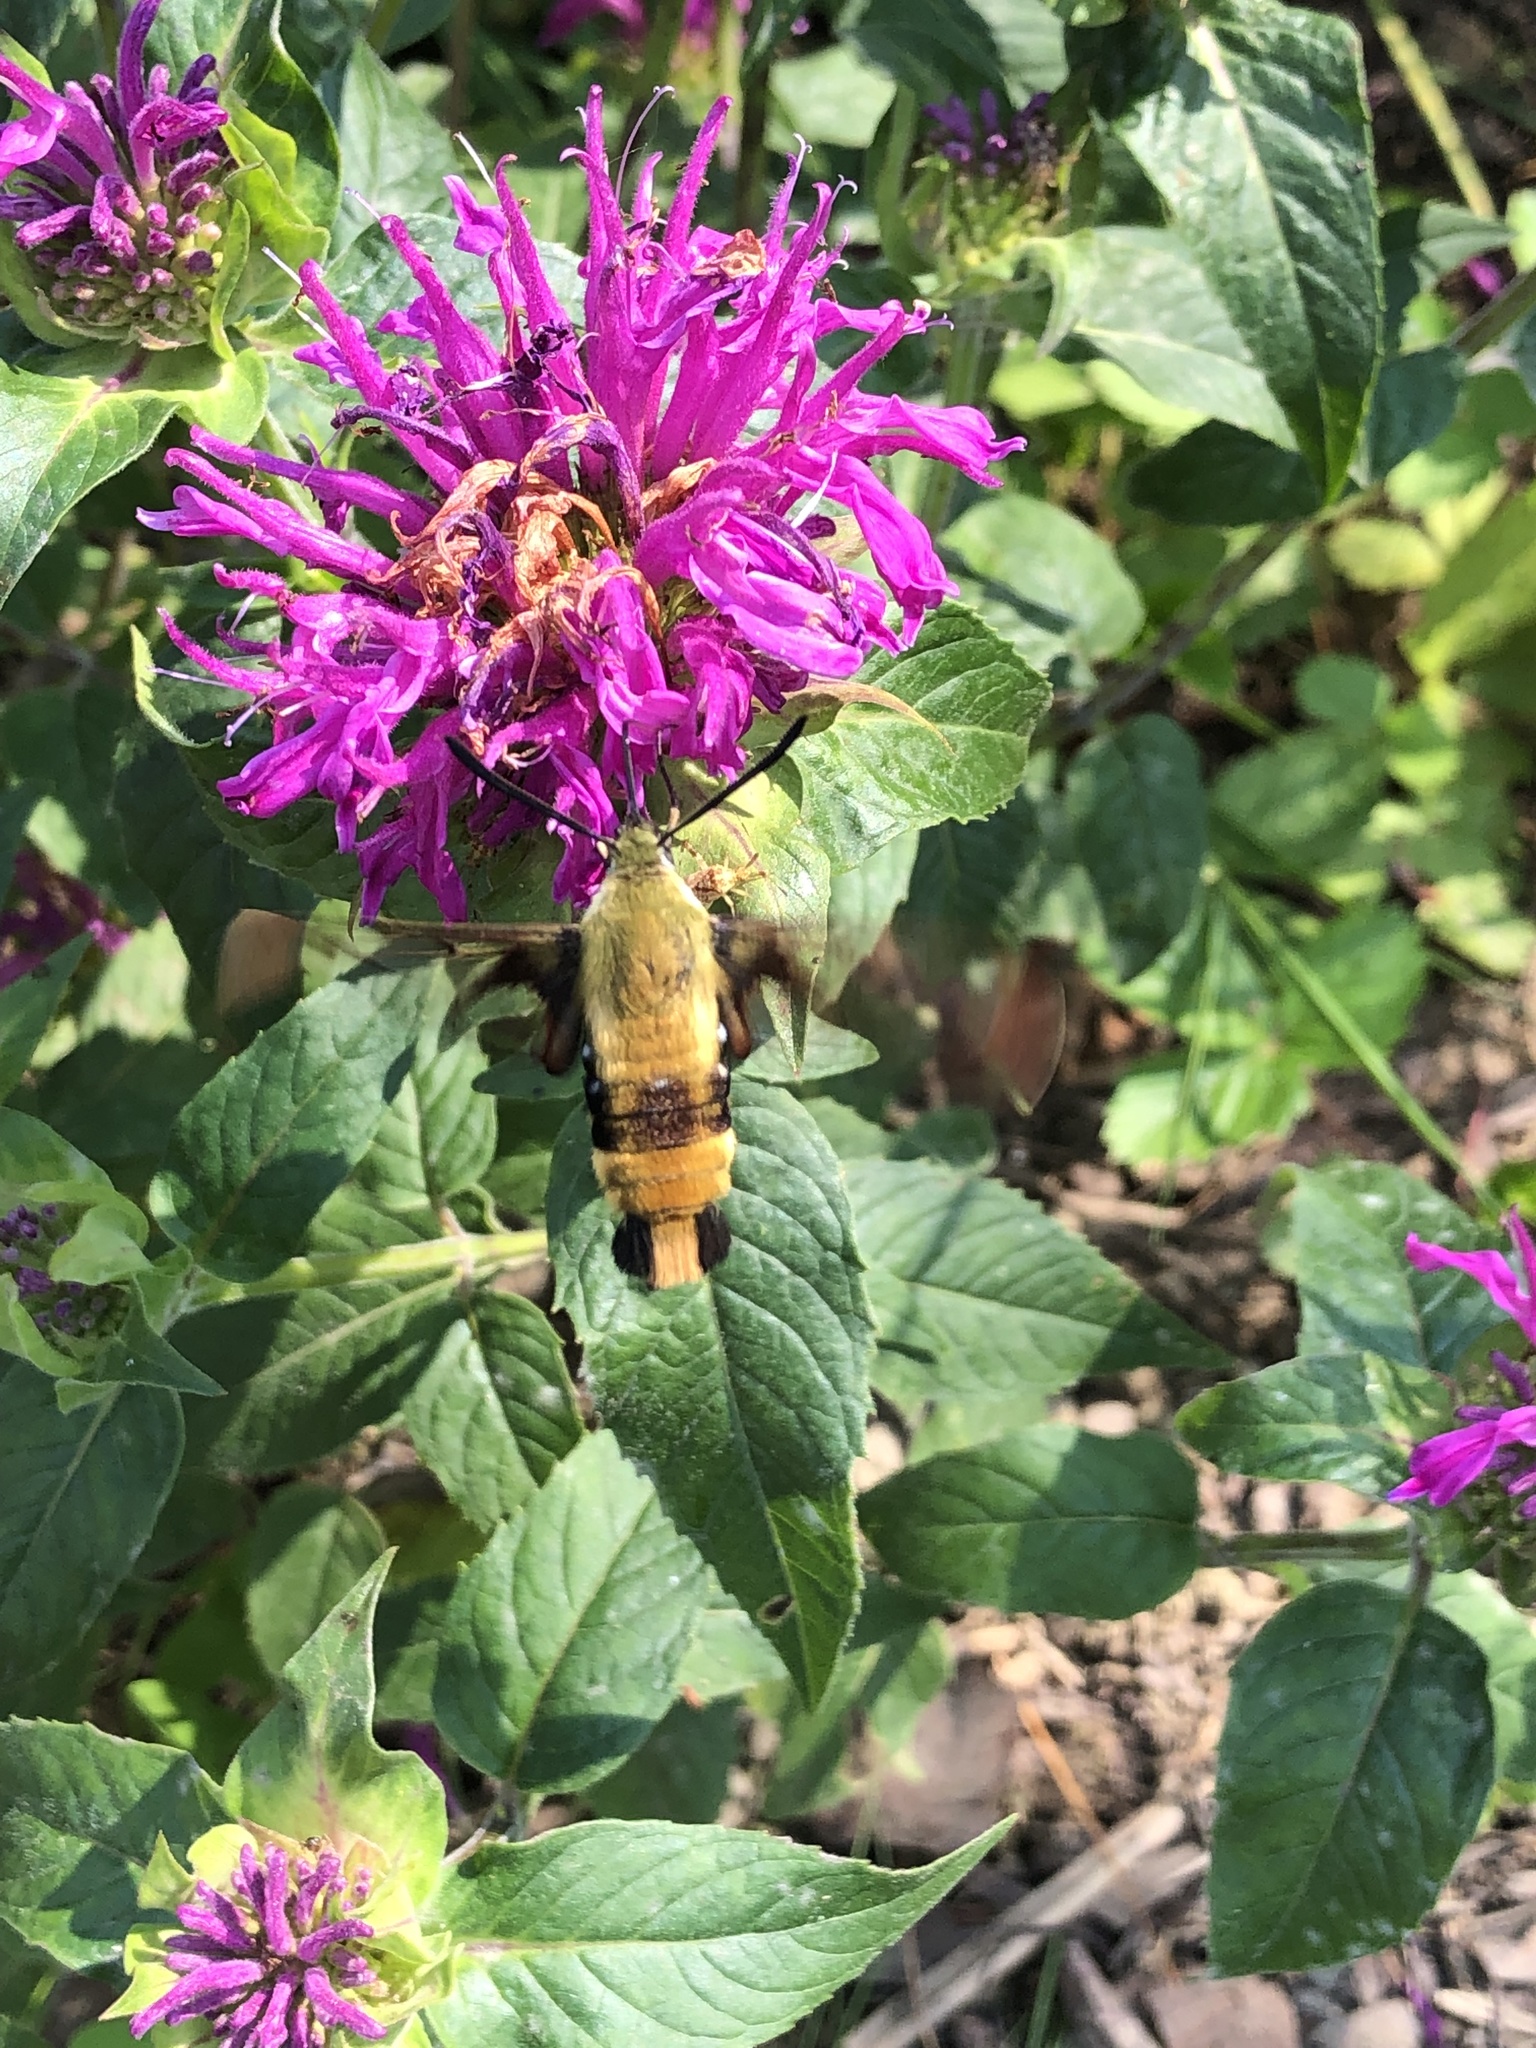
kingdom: Animalia
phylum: Arthropoda
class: Insecta
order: Lepidoptera
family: Sphingidae
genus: Hemaris
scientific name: Hemaris diffinis
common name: Bumblebee moth
